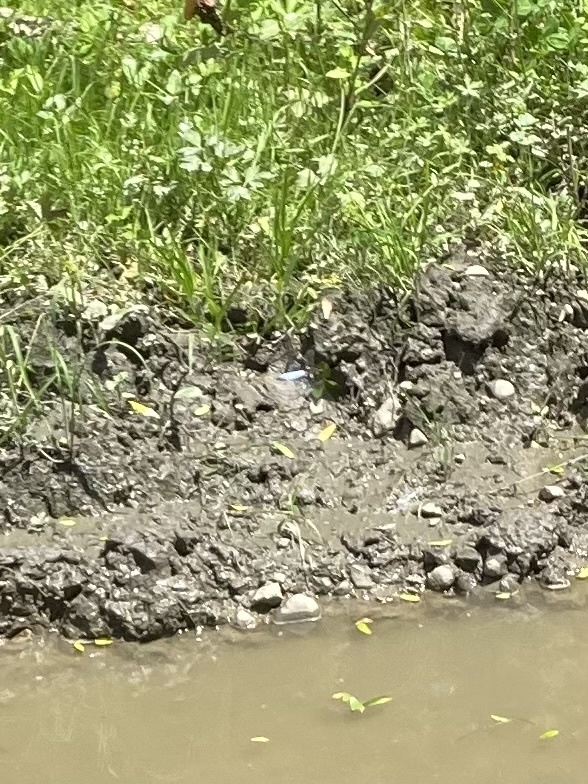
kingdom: Animalia
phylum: Arthropoda
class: Insecta
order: Odonata
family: Libellulidae
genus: Libellula
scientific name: Libellula depressa
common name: Broad-bodied chaser
